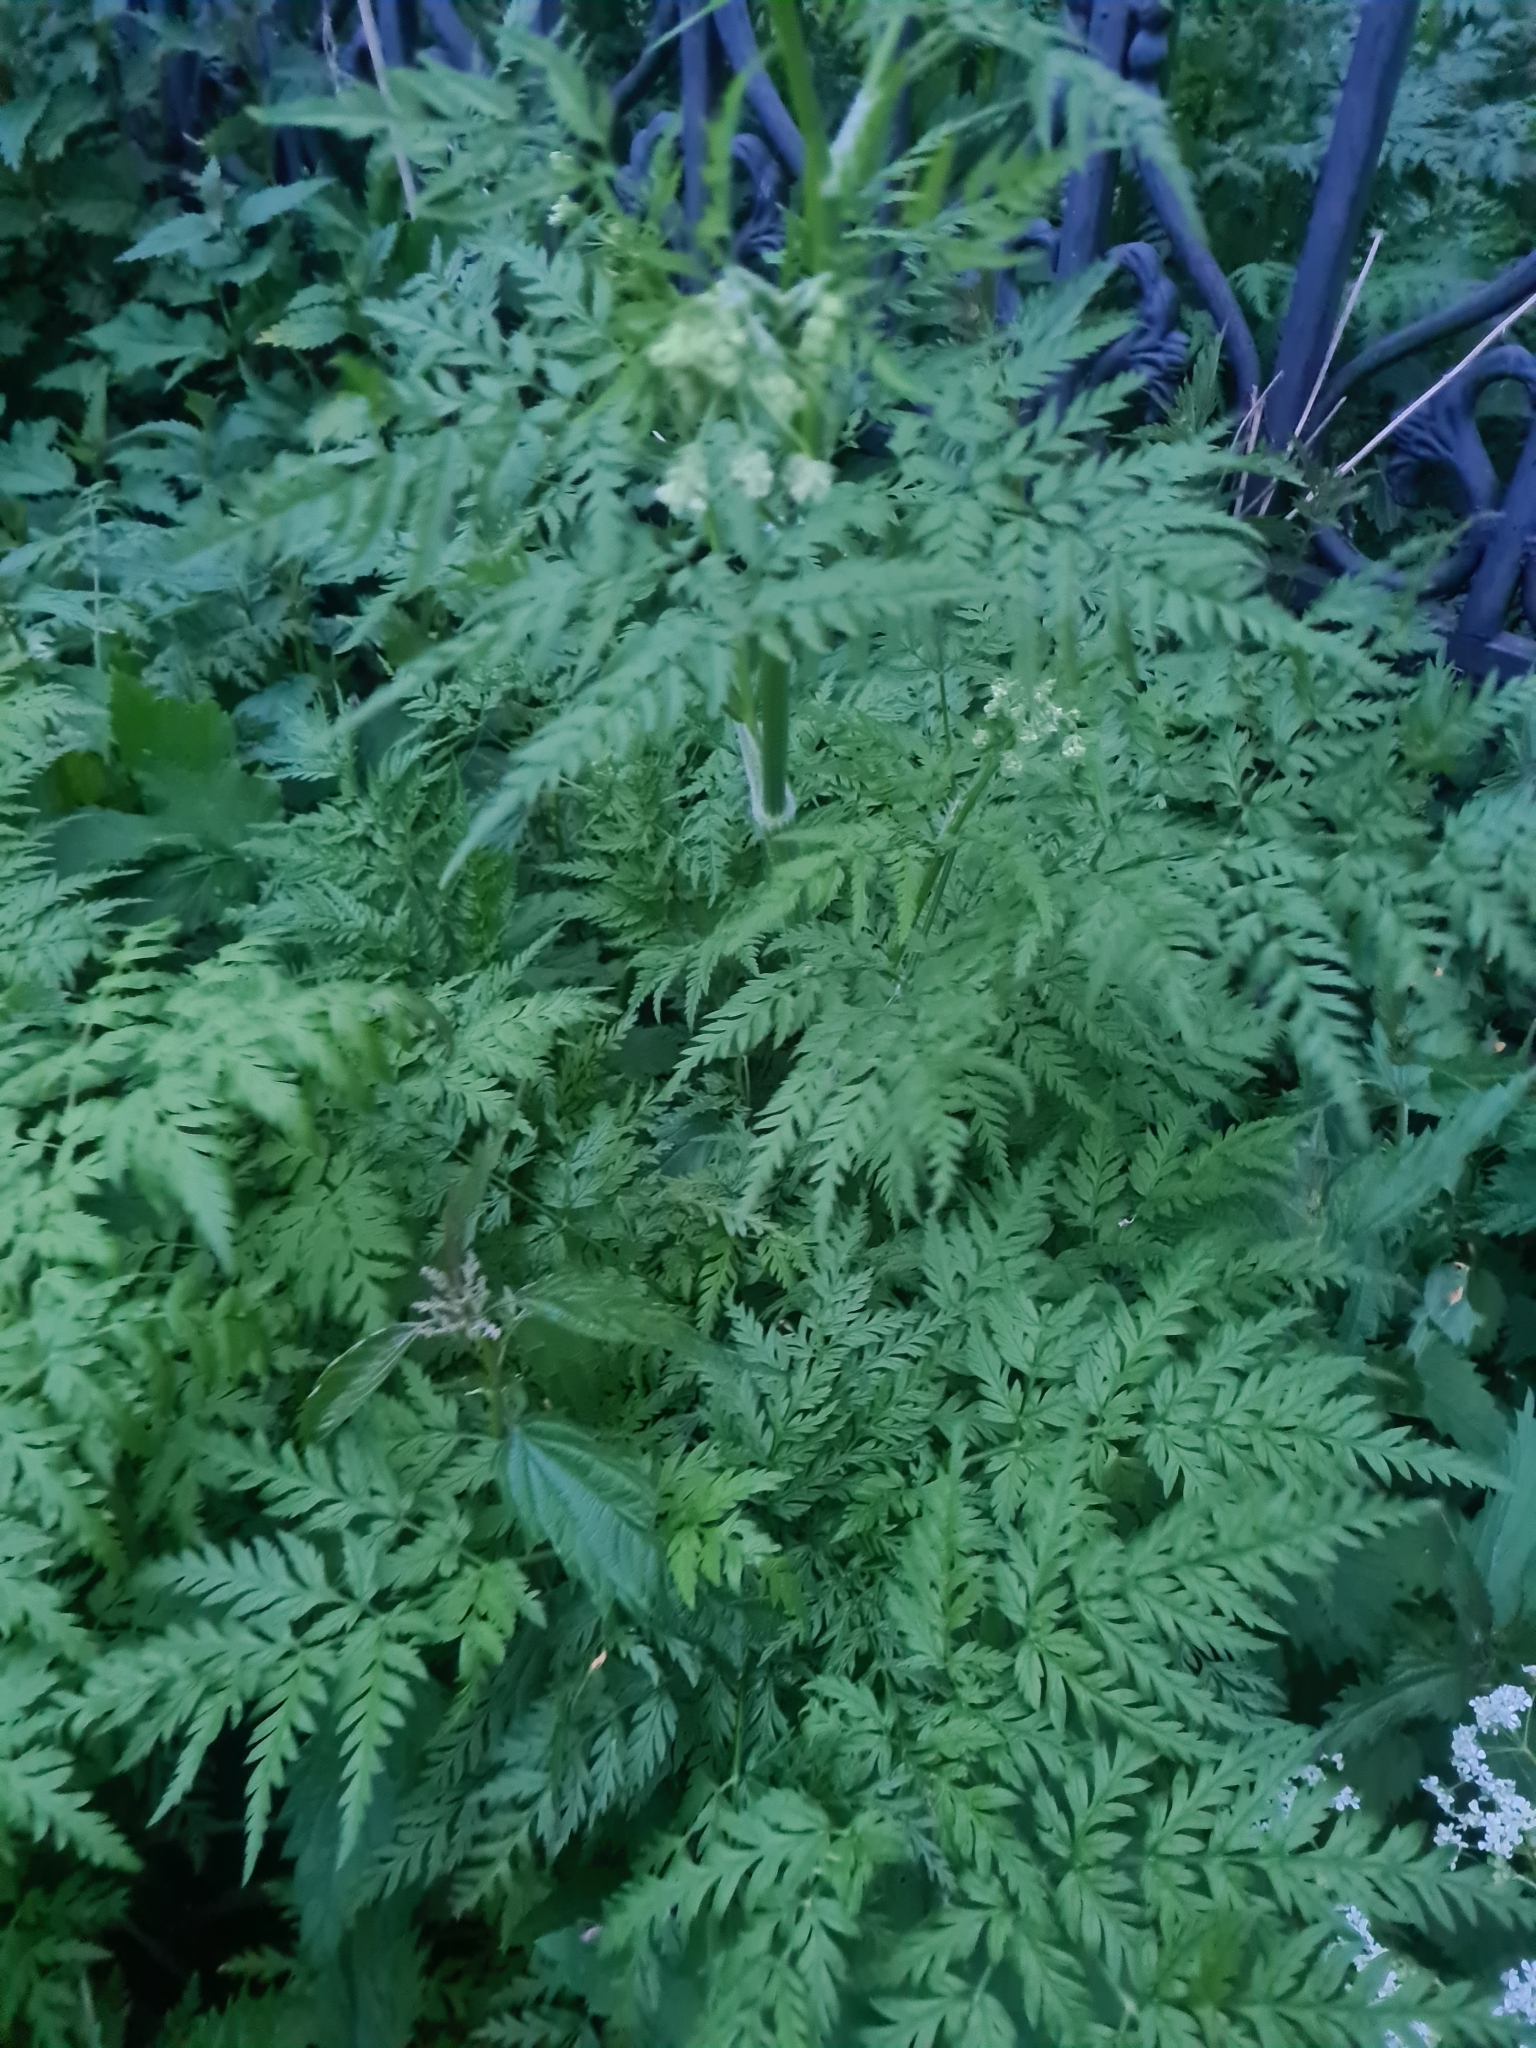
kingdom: Plantae
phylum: Tracheophyta
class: Magnoliopsida
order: Apiales
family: Apiaceae
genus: Anthriscus
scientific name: Anthriscus sylvestris
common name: Cow parsley
